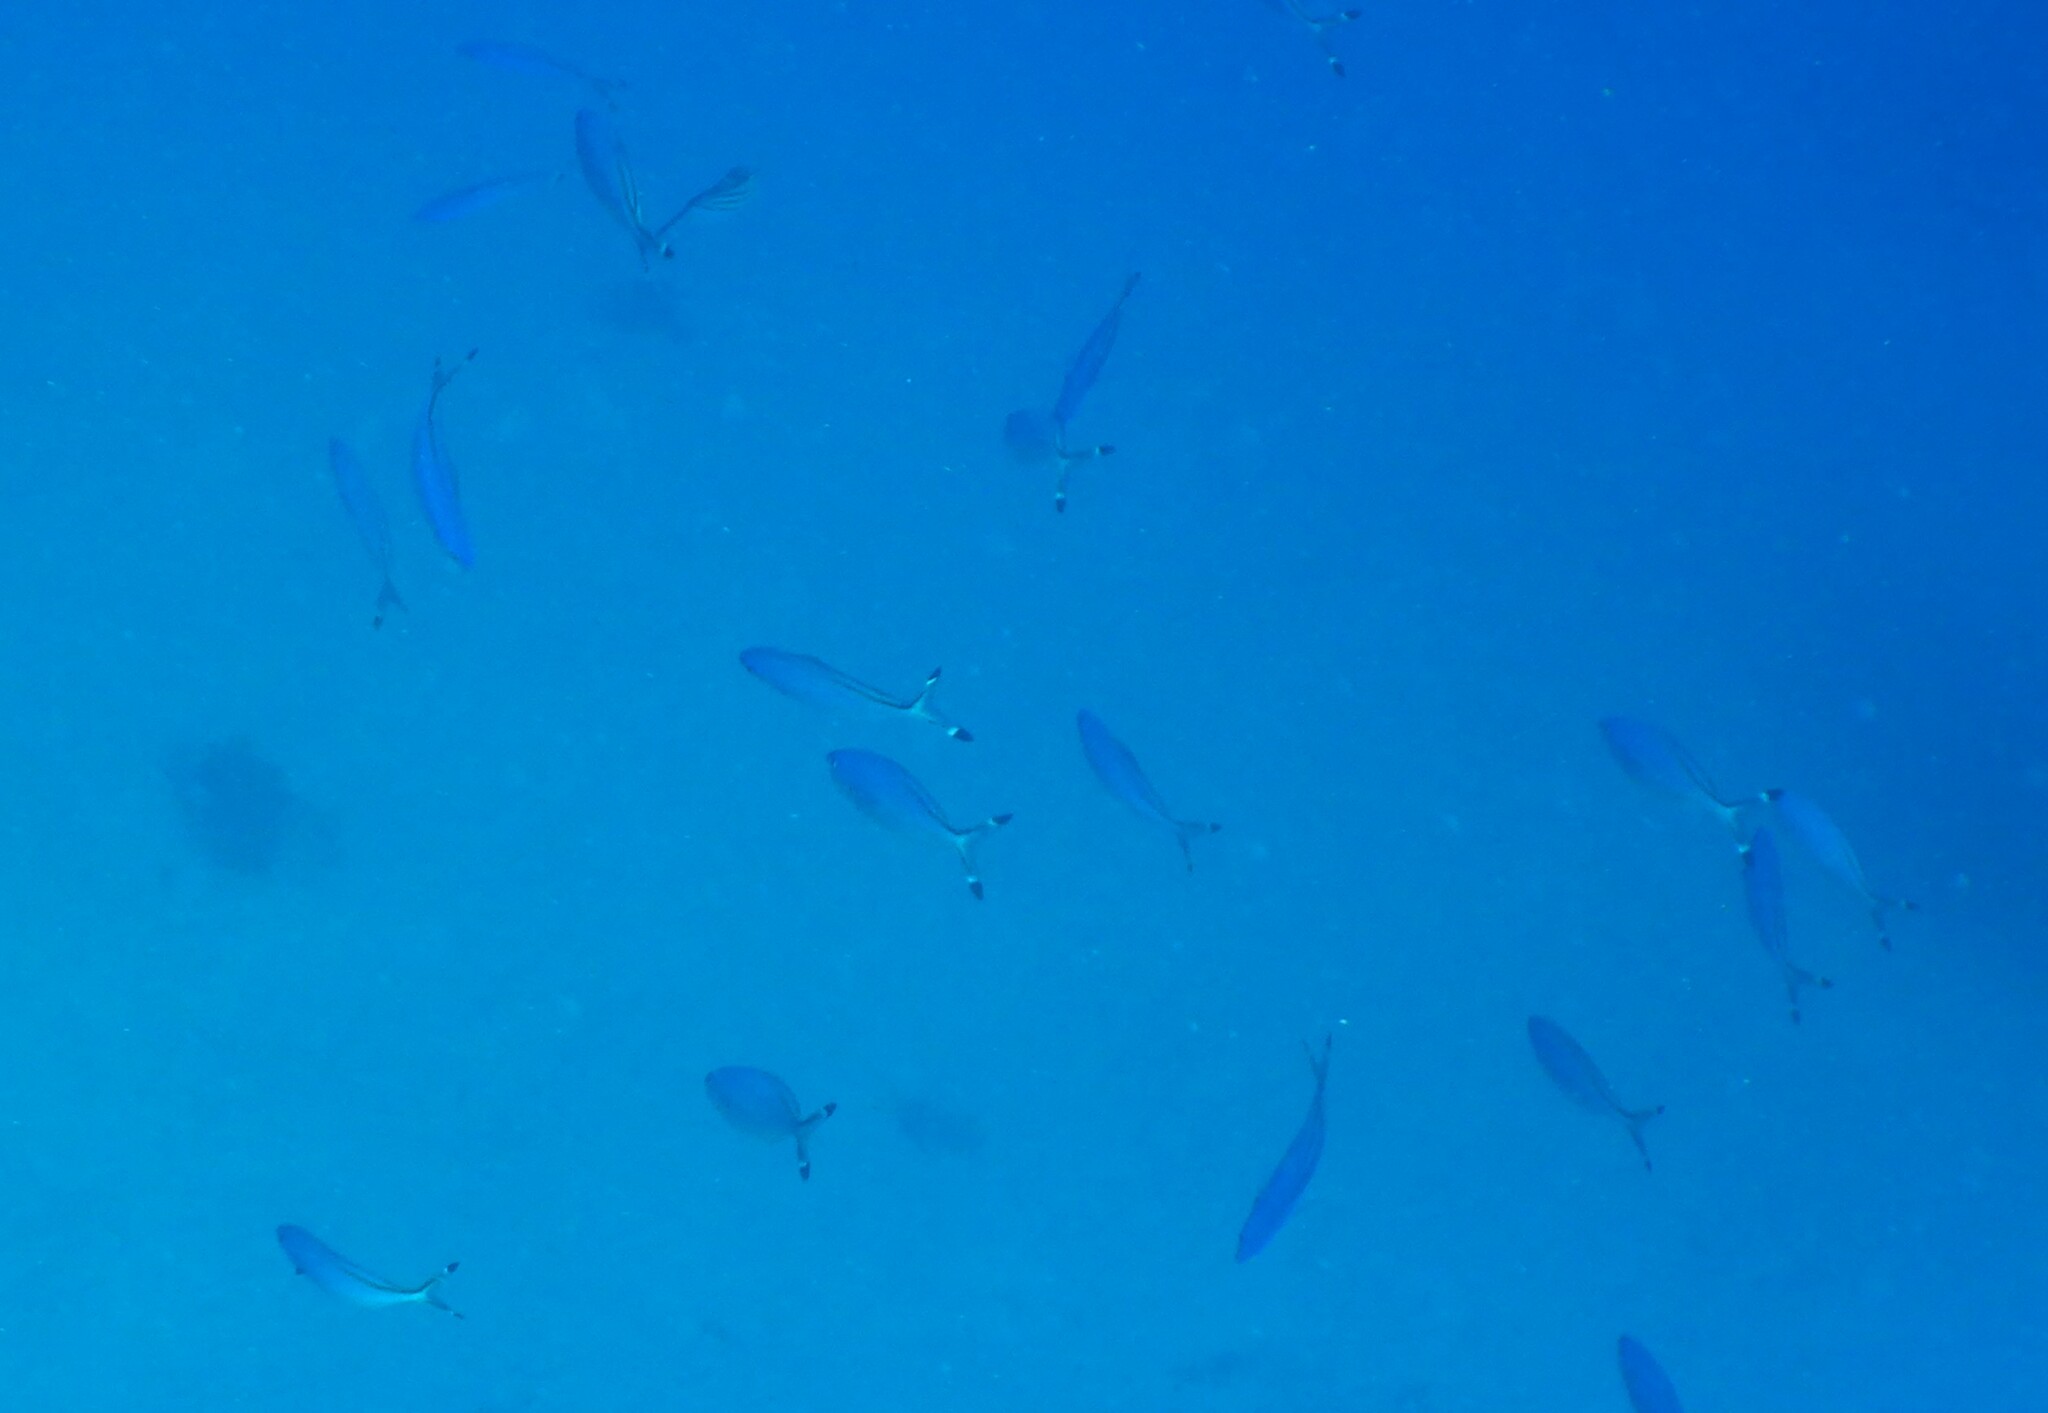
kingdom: Animalia
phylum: Chordata
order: Perciformes
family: Caesionidae
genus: Caesio
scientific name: Caesio suevica
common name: Suez fusilier
